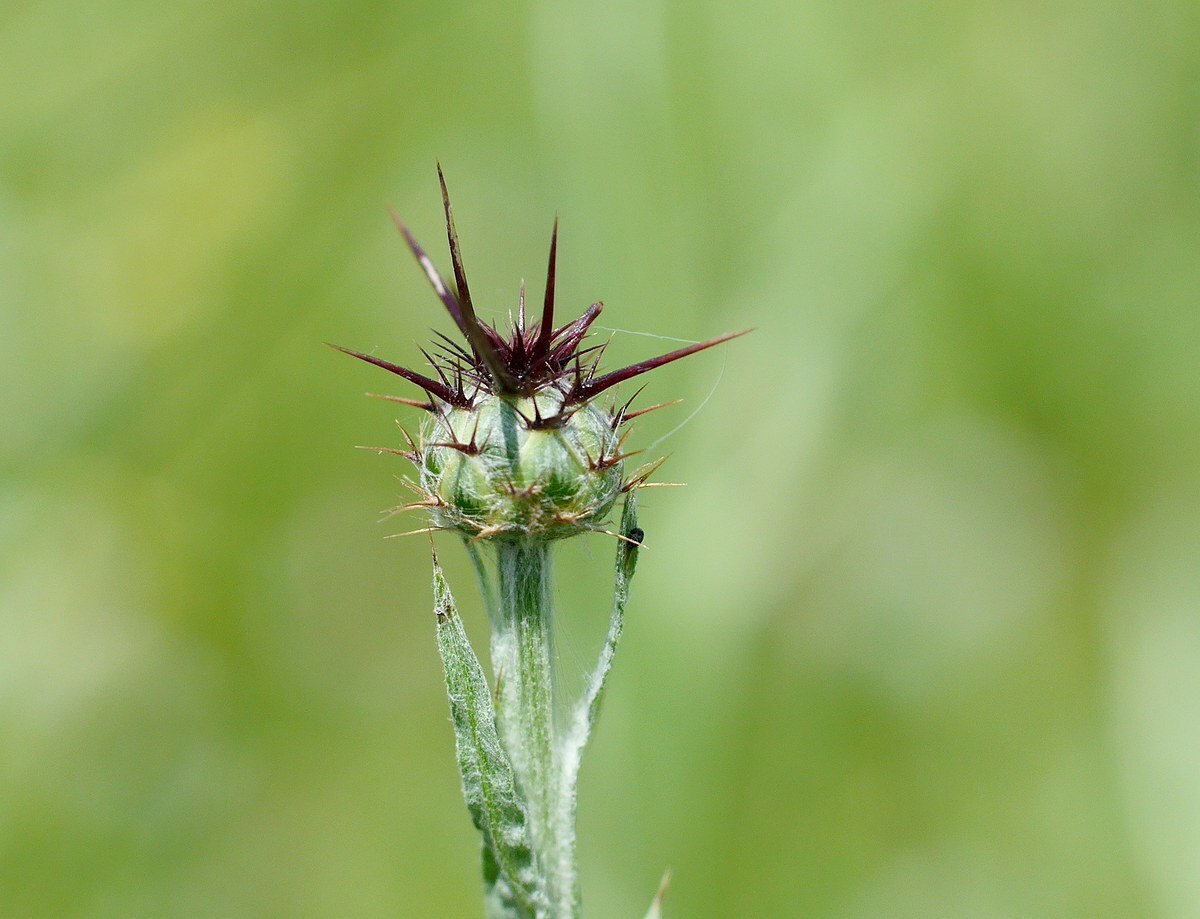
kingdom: Plantae
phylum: Tracheophyta
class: Magnoliopsida
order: Asterales
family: Asteraceae
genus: Centaurea
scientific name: Centaurea solstitialis
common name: Yellow star-thistle
